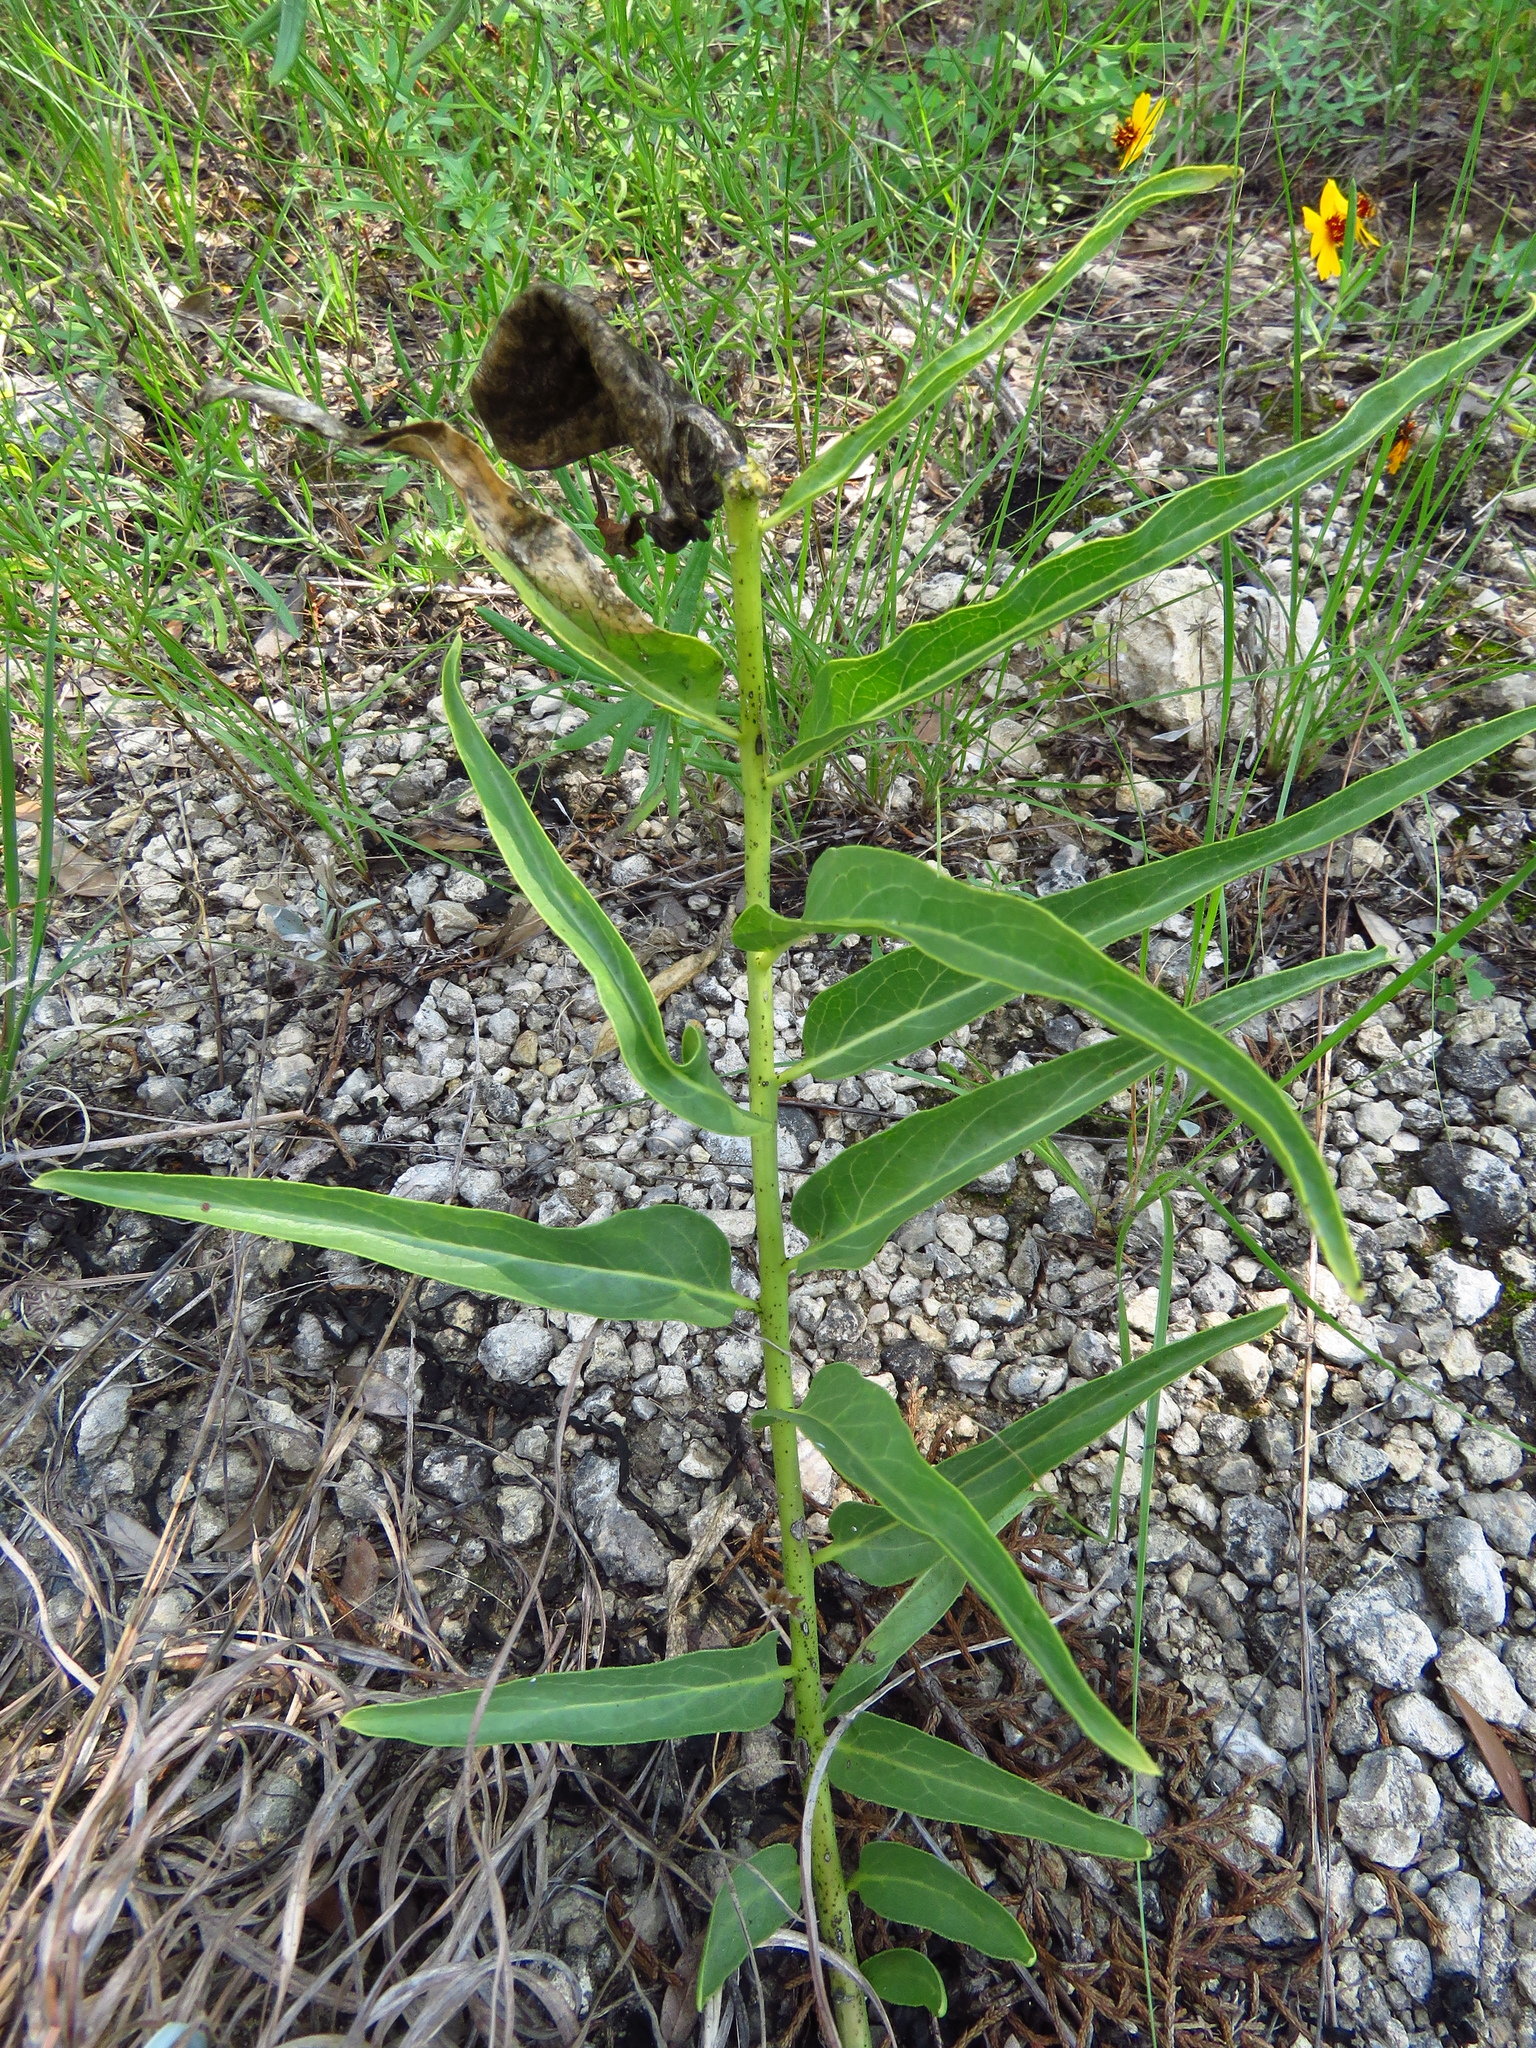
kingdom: Plantae
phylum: Tracheophyta
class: Magnoliopsida
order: Gentianales
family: Apocynaceae
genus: Asclepias
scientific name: Asclepias asperula
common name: Antelope horns
